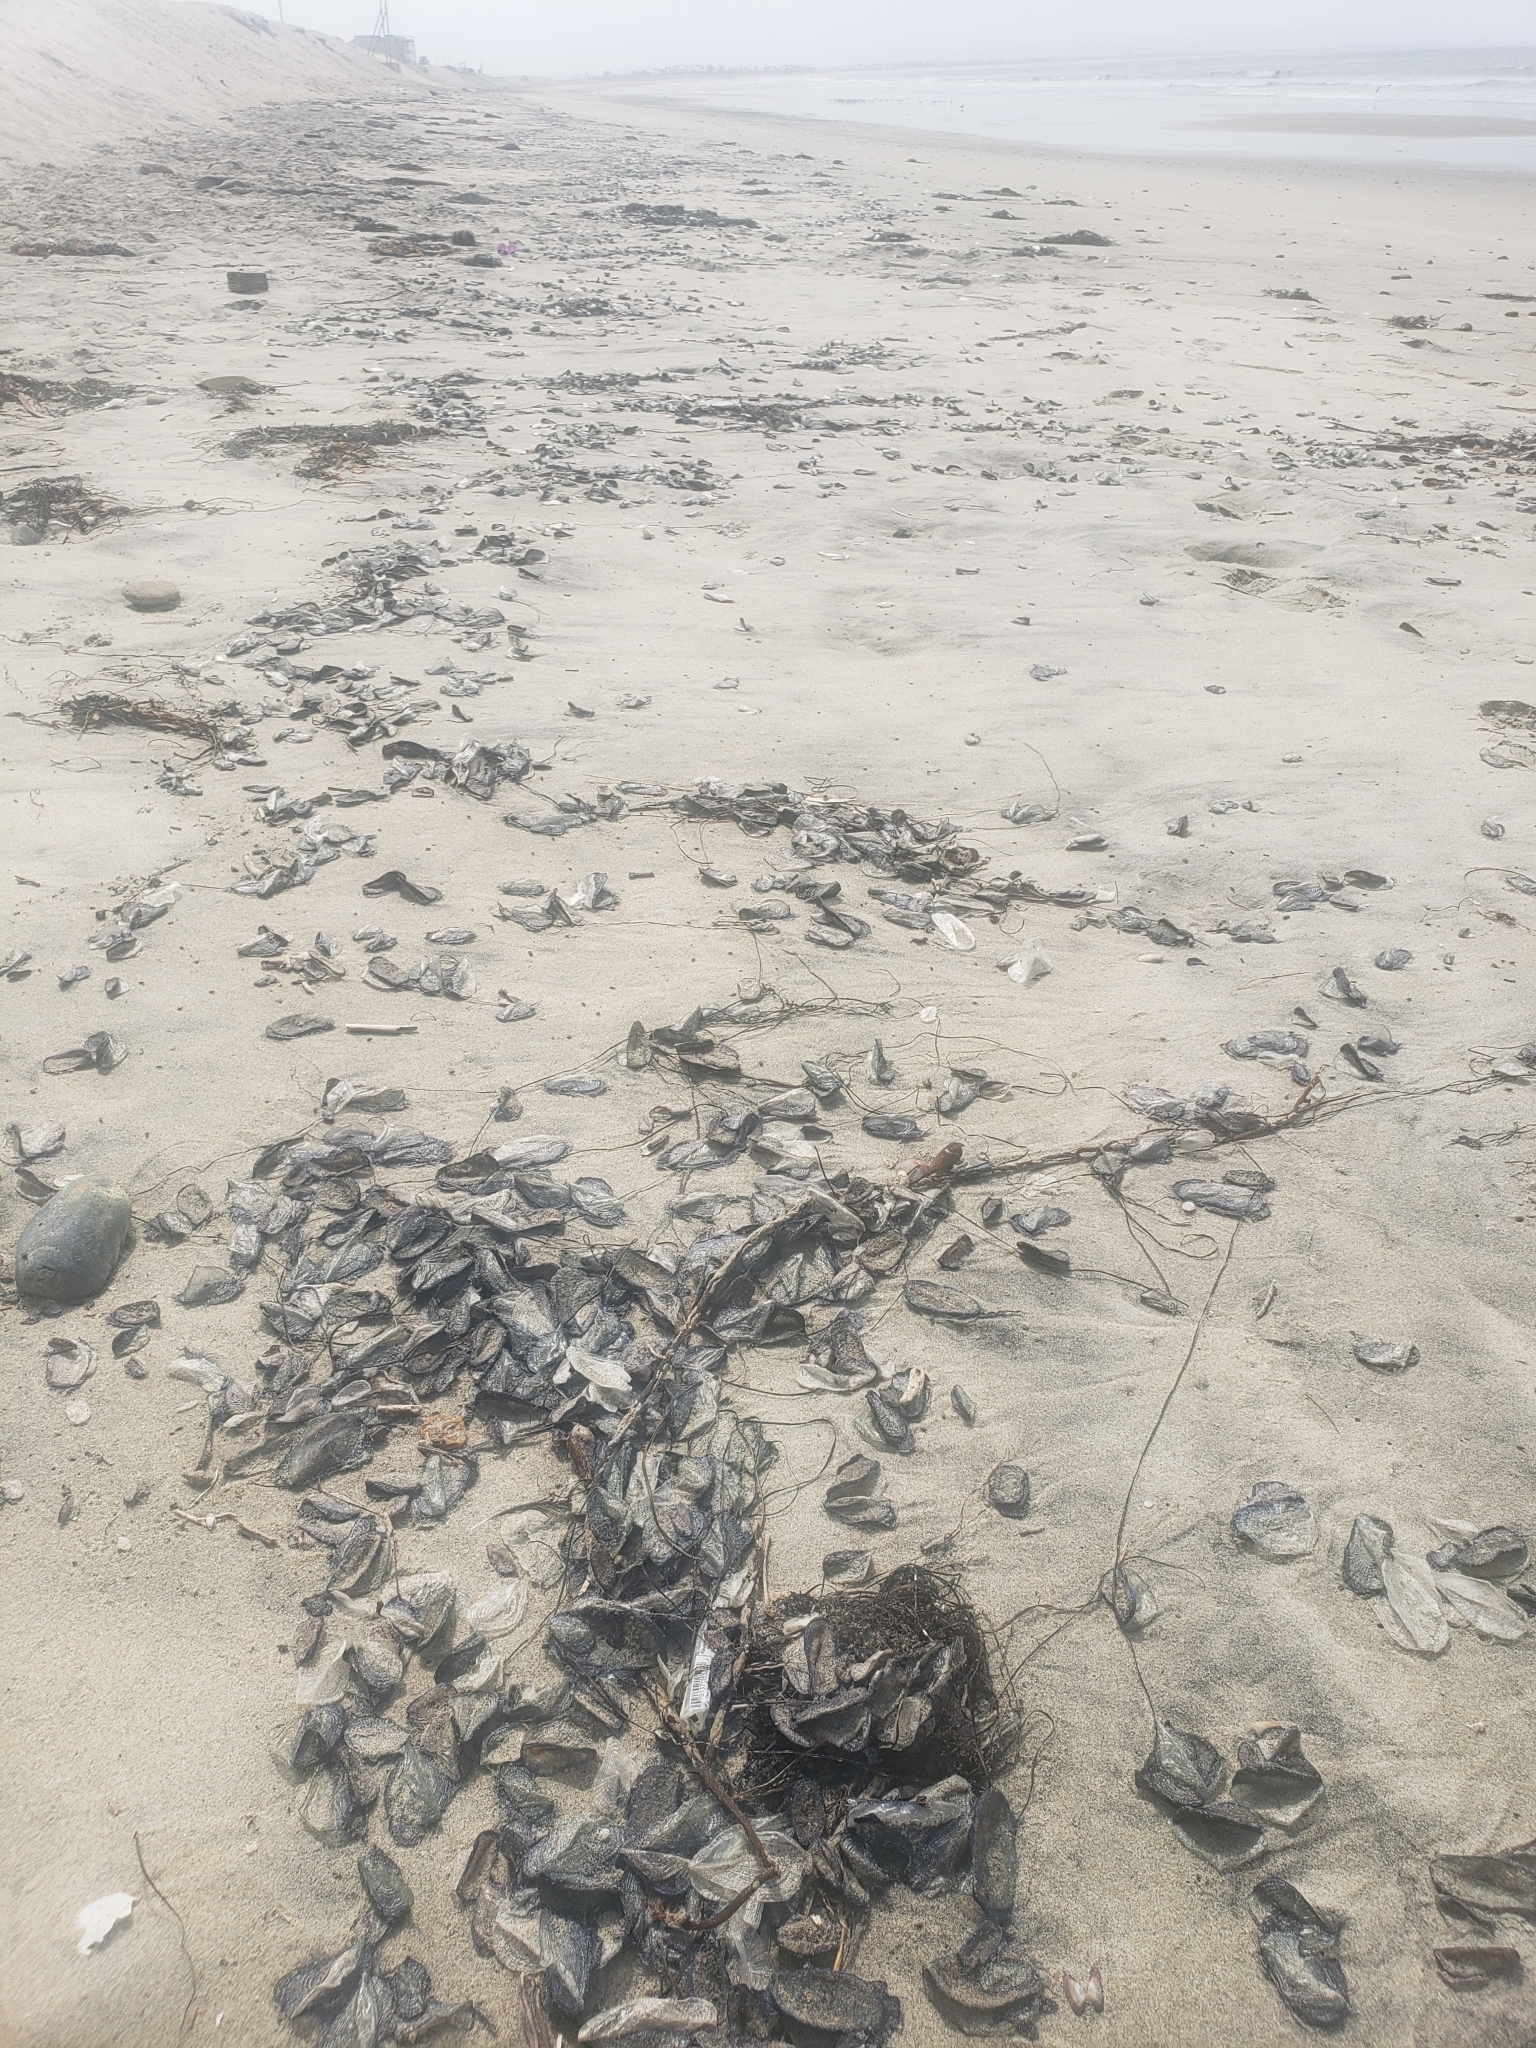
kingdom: Animalia
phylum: Cnidaria
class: Hydrozoa
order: Anthoathecata
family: Porpitidae
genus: Velella
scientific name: Velella velella
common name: By-the-wind-sailor
